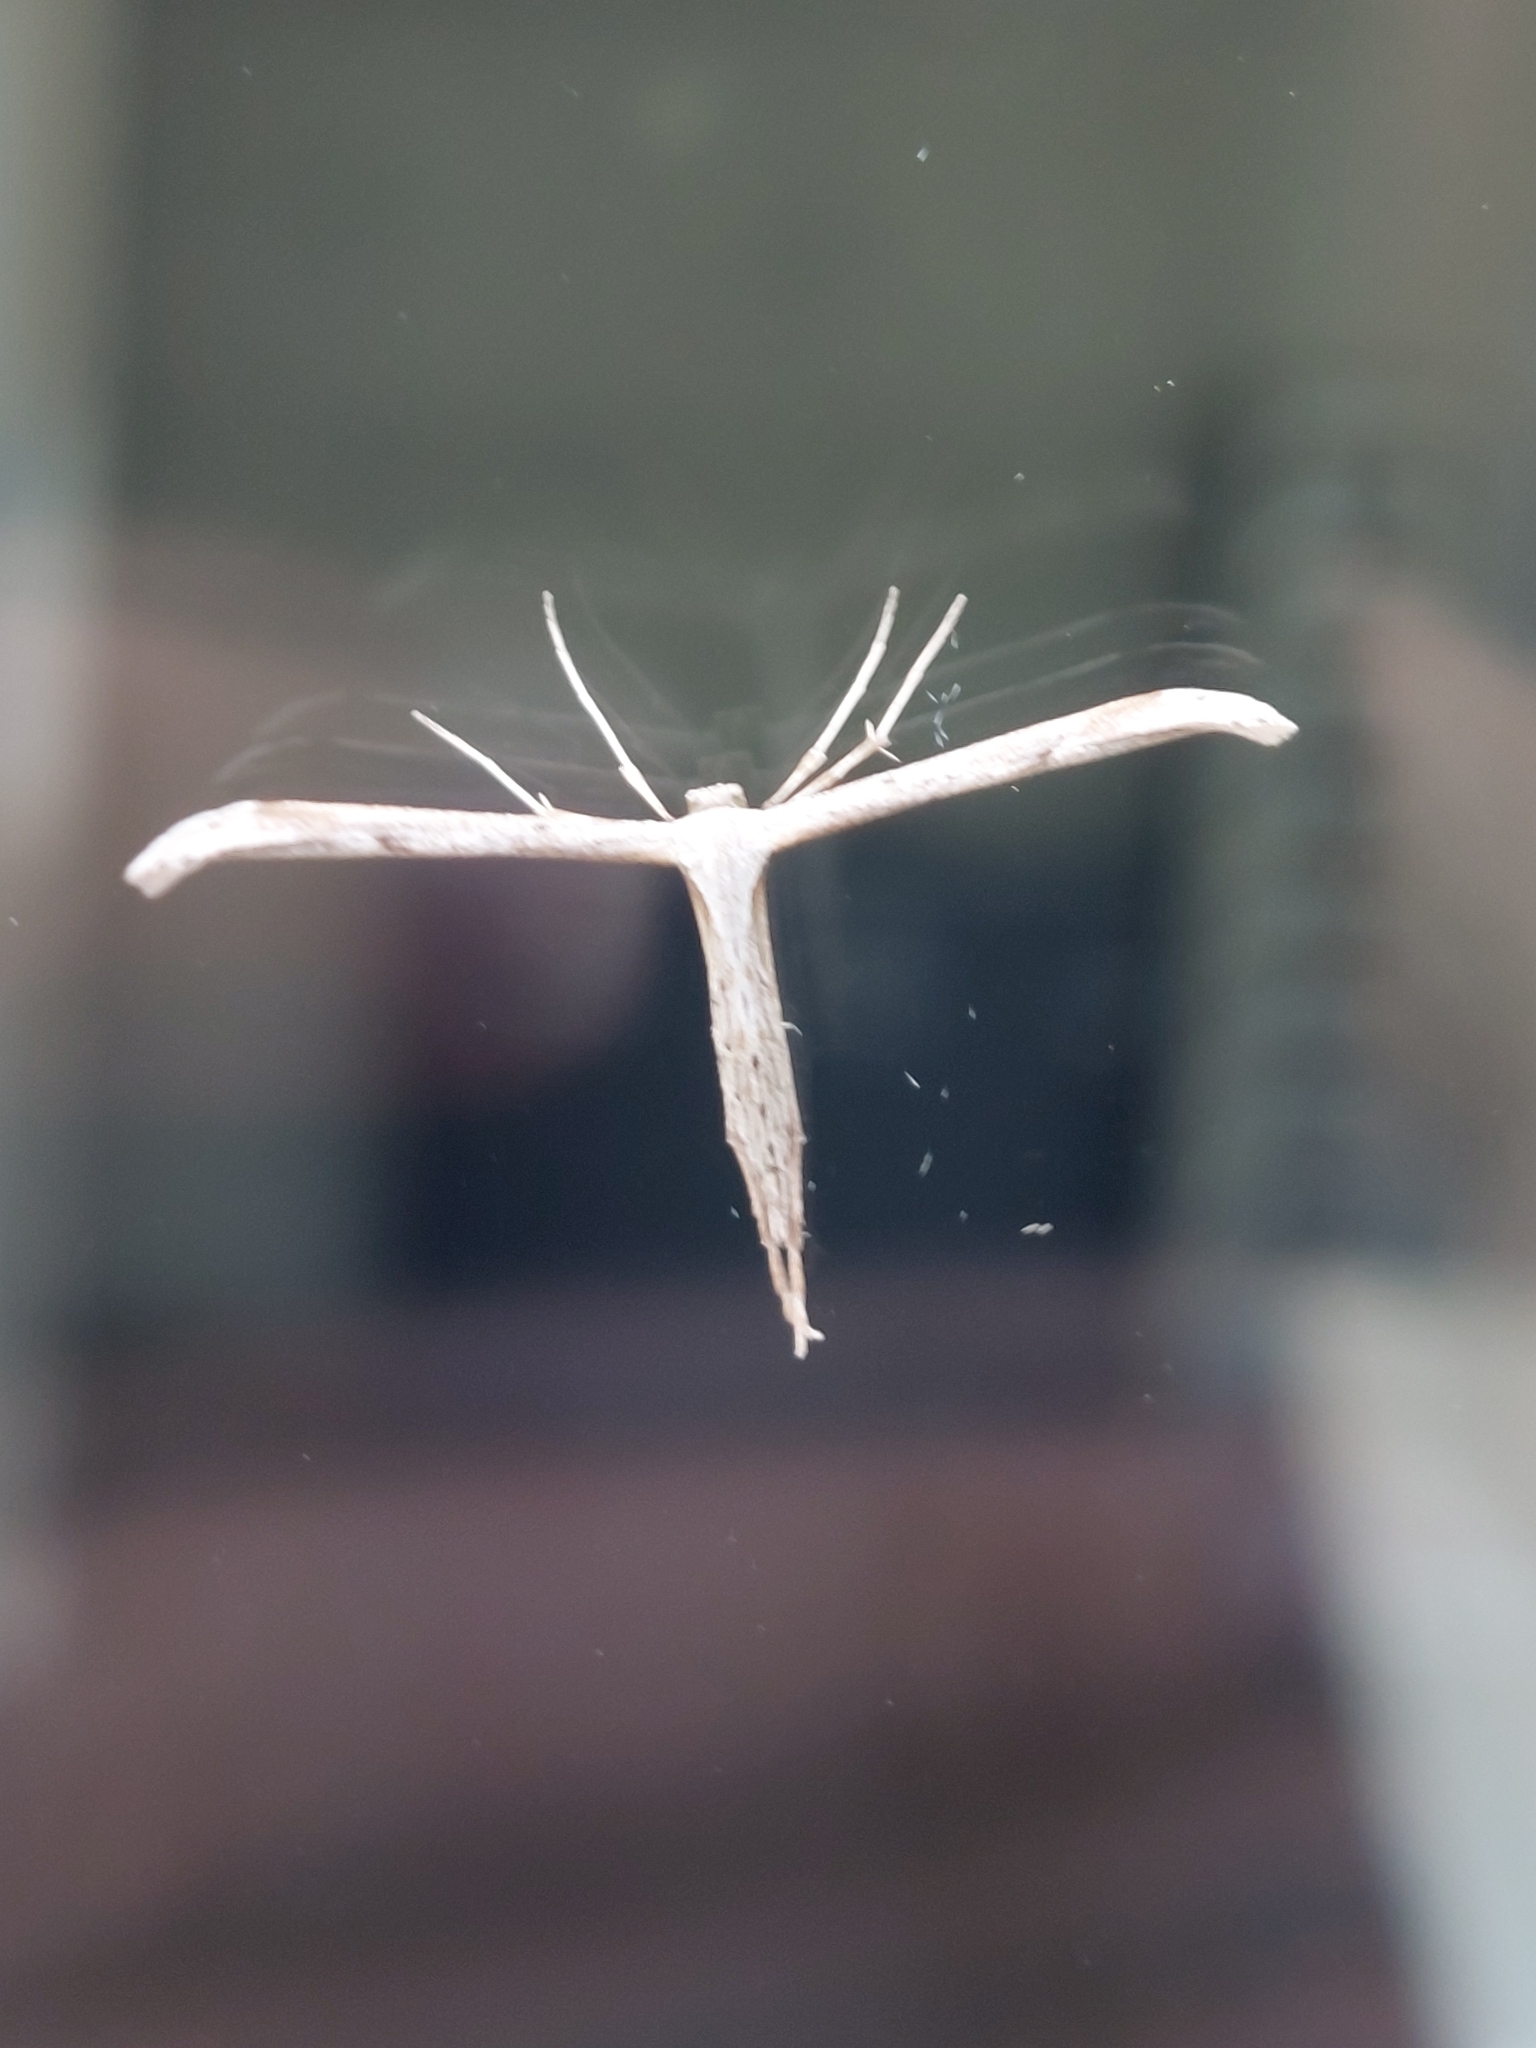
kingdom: Animalia
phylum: Arthropoda
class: Insecta
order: Lepidoptera
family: Pterophoridae
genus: Emmelina
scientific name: Emmelina monodactyla
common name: Common plume
